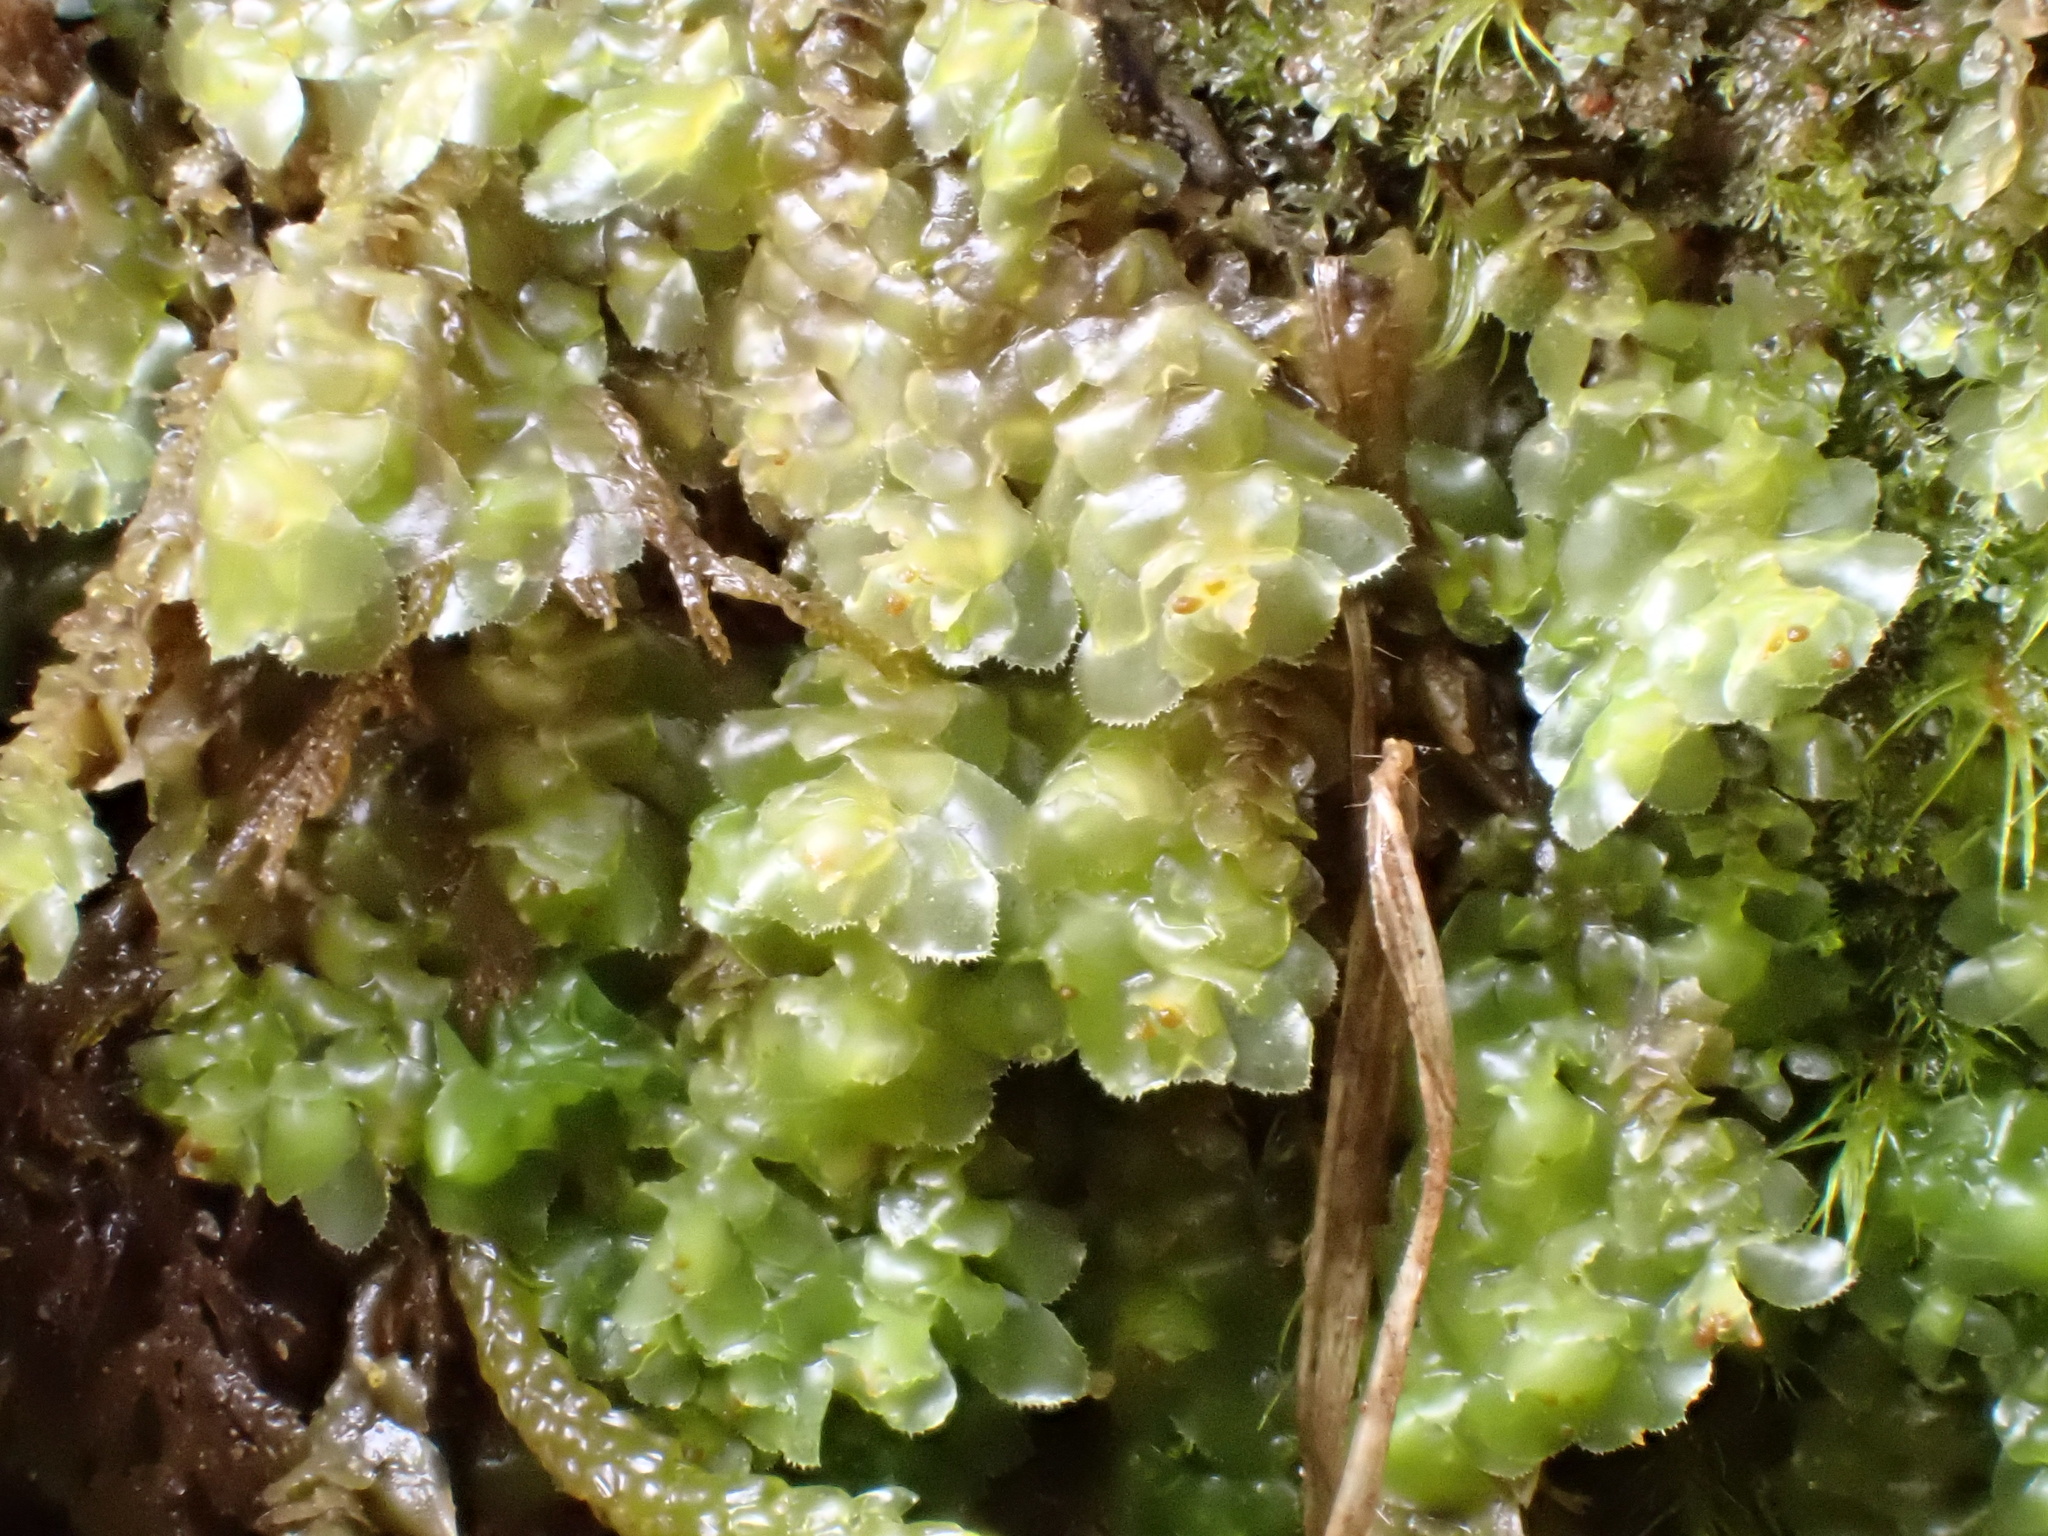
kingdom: Plantae
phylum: Marchantiophyta
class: Jungermanniopsida
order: Jungermanniales
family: Scapaniaceae
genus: Scapania
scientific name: Scapania nemorea
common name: Grove earwort
